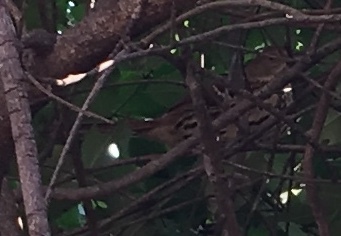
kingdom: Animalia
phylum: Chordata
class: Aves
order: Passeriformes
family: Mimidae
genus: Toxostoma
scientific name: Toxostoma rufum
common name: Brown thrasher
